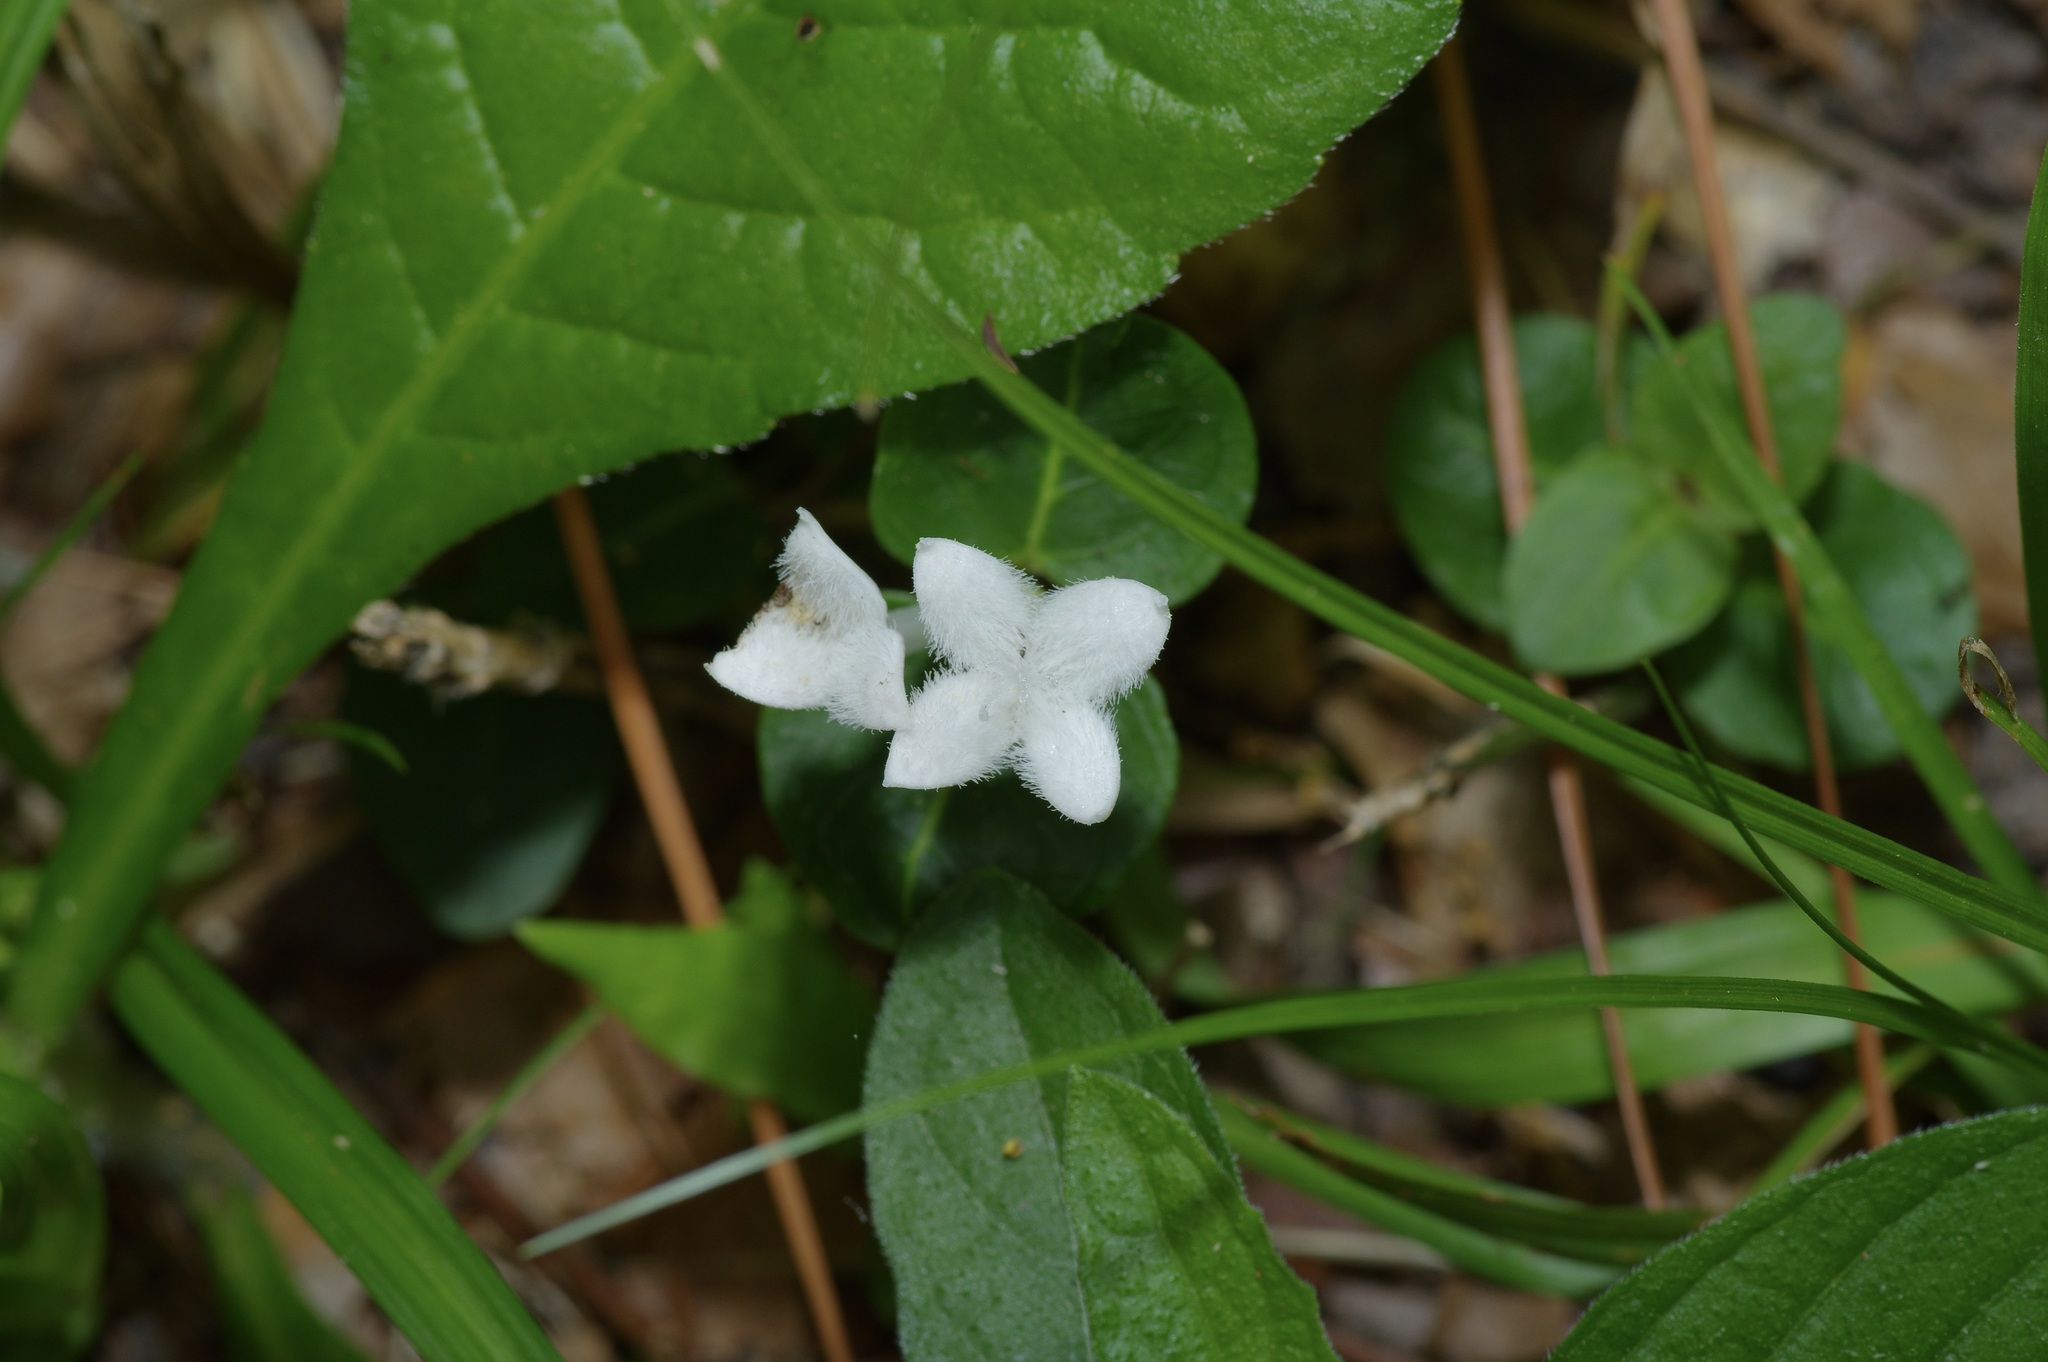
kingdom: Plantae
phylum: Tracheophyta
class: Magnoliopsida
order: Gentianales
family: Rubiaceae
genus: Mitchella
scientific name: Mitchella repens
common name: Partridge-berry
